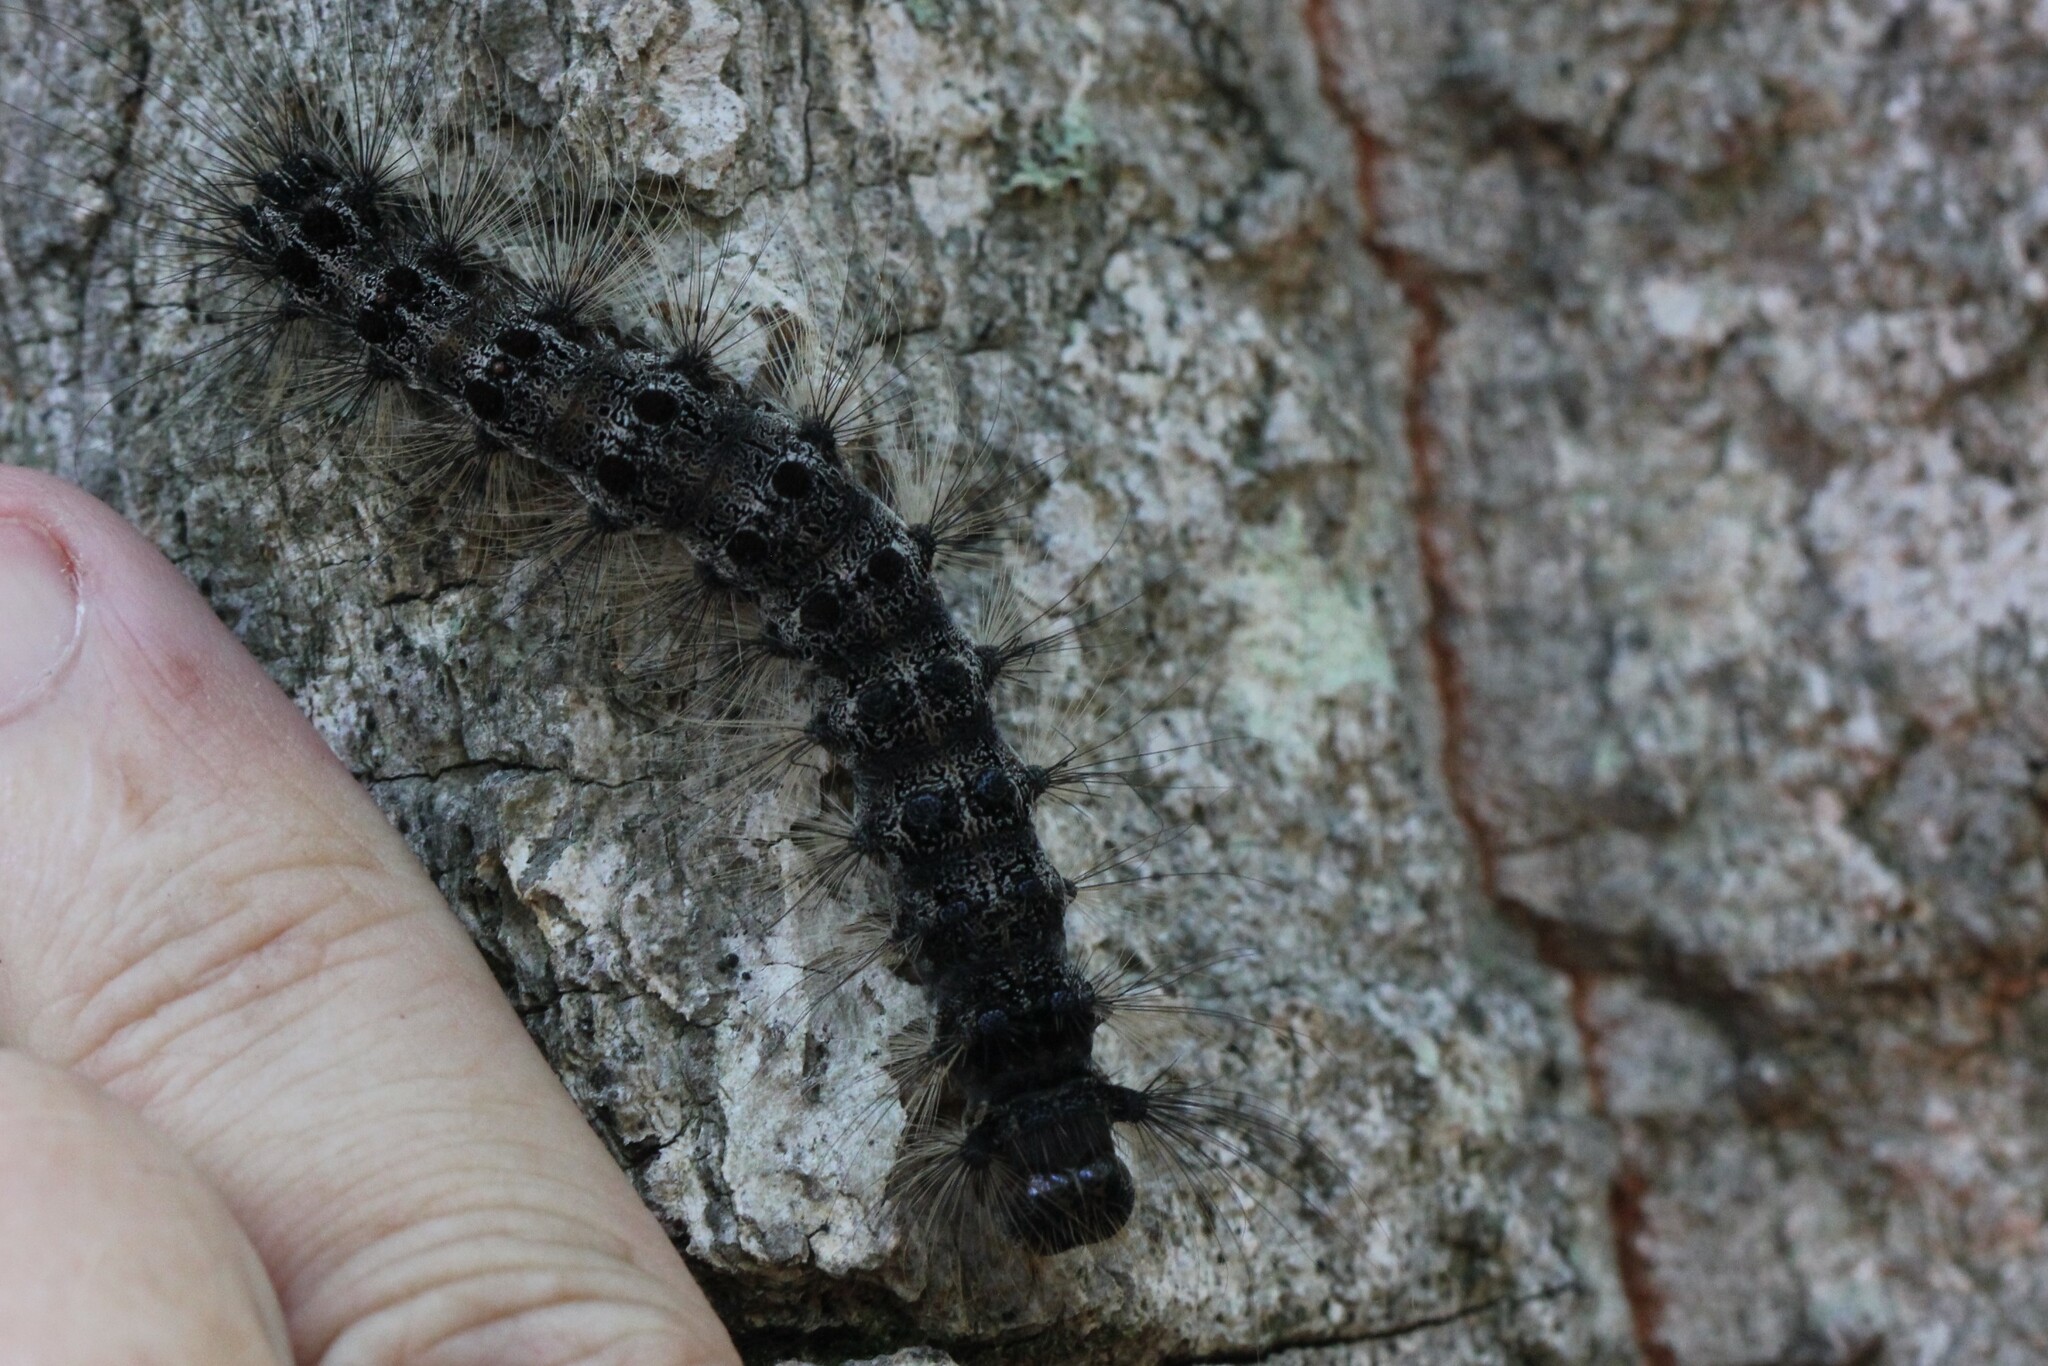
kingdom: Animalia
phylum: Arthropoda
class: Insecta
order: Lepidoptera
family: Erebidae
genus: Lymantria
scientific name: Lymantria dispar
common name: Gypsy moth
